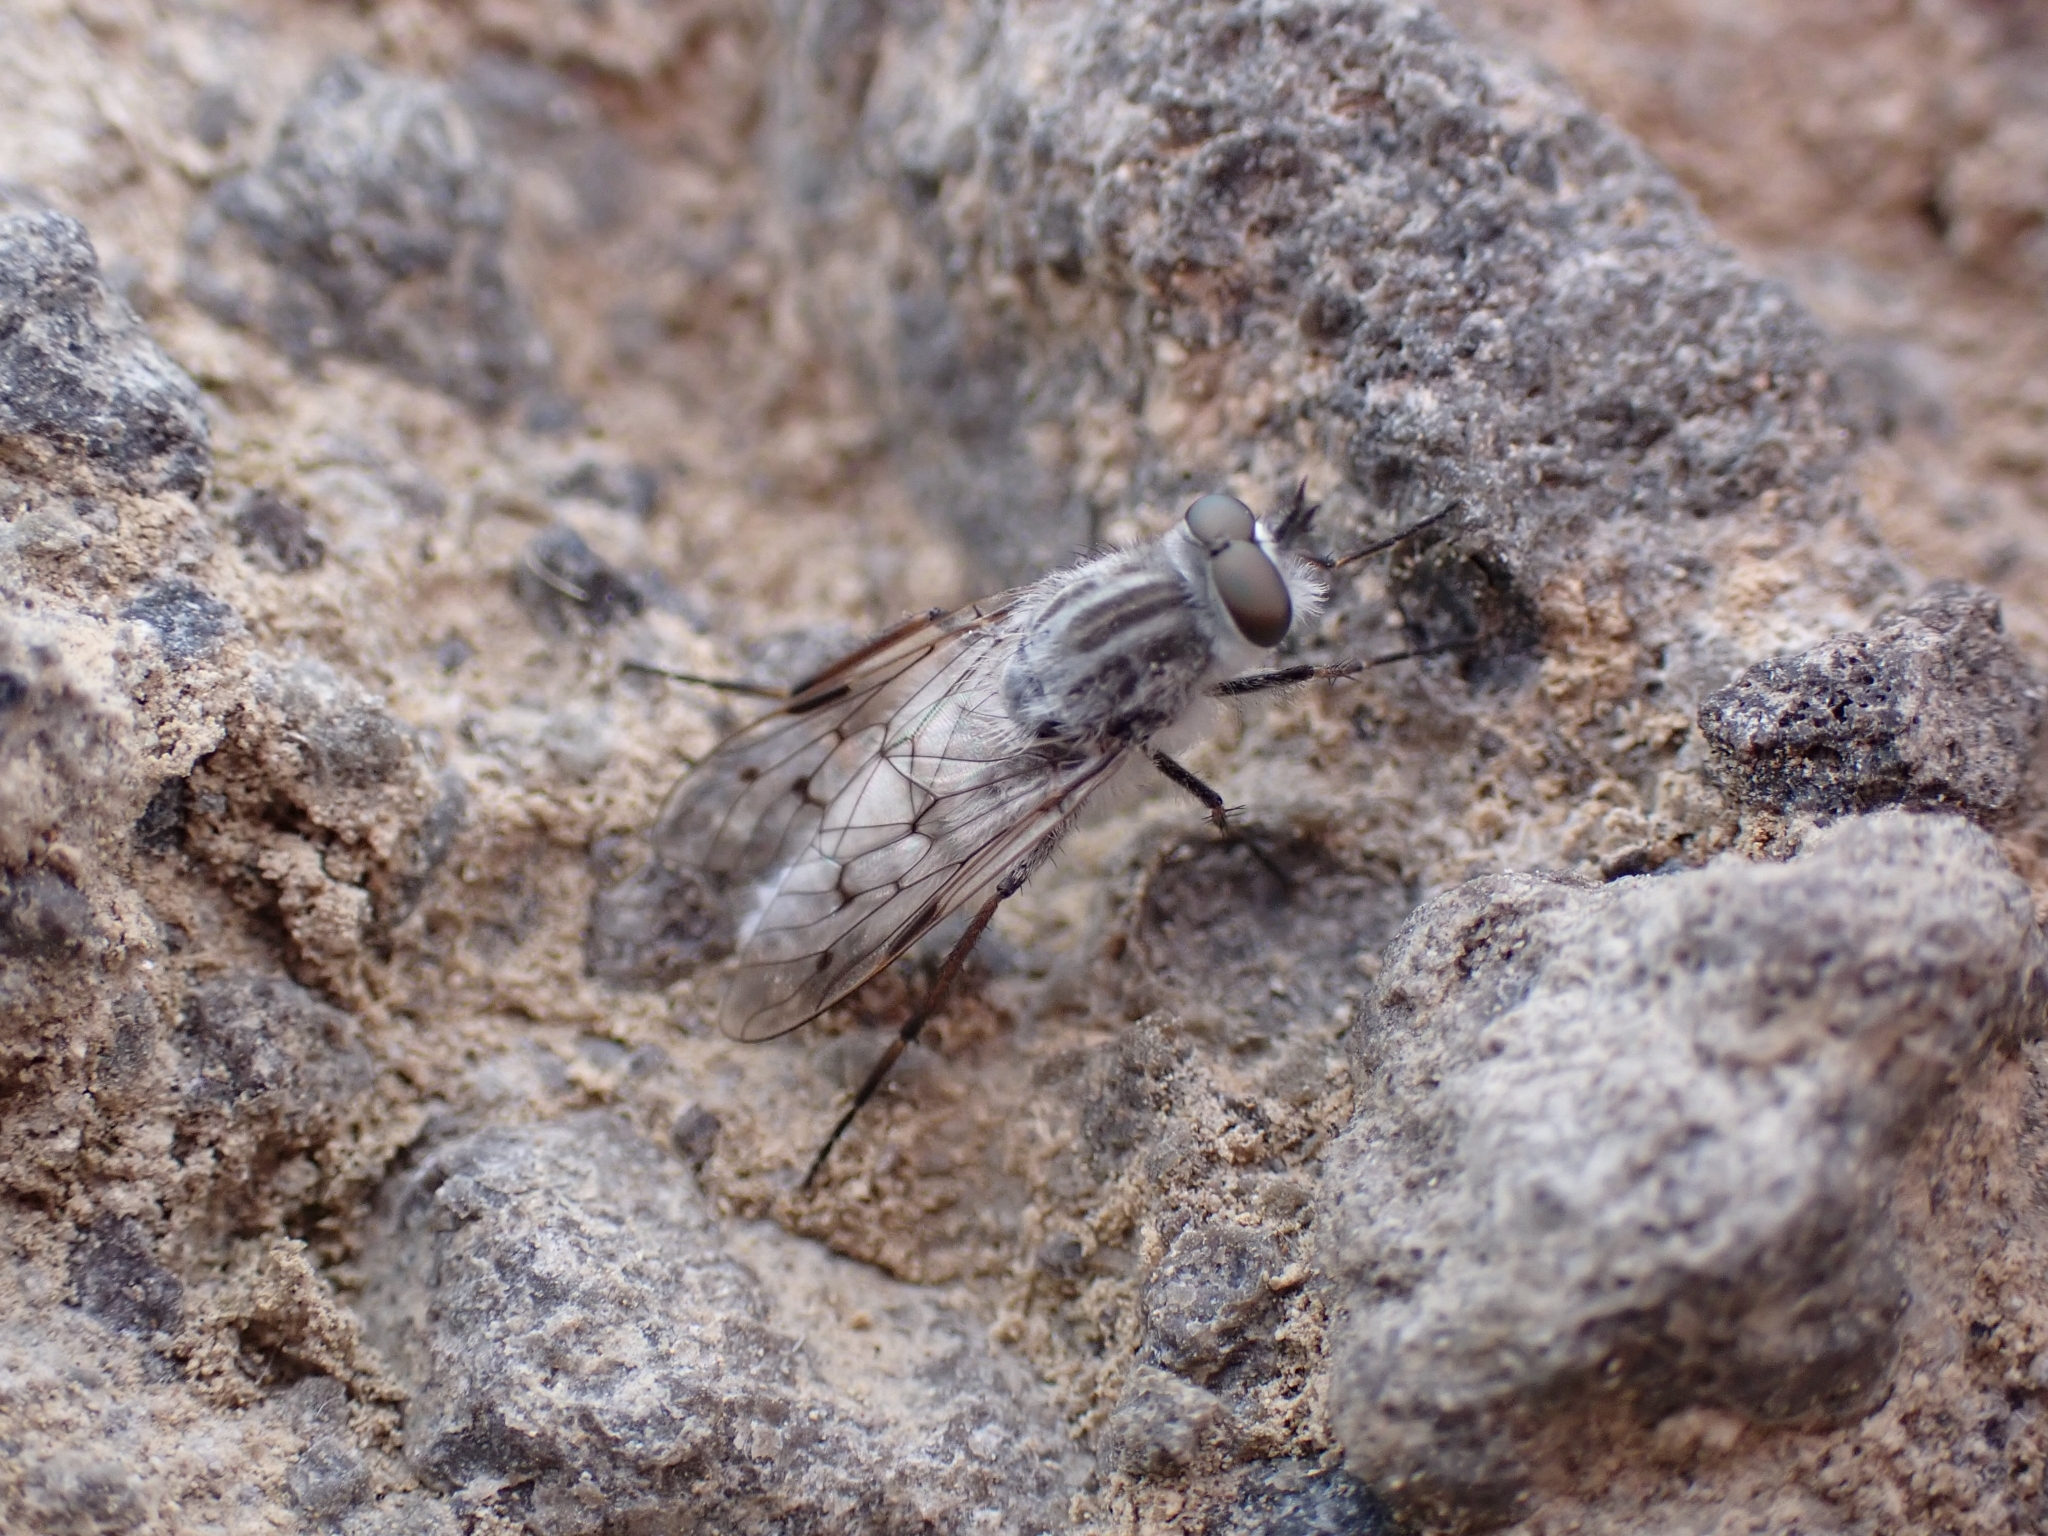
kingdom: Animalia
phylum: Arthropoda
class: Insecta
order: Diptera
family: Therevidae
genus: Irwiniella
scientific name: Irwiniella frontata
